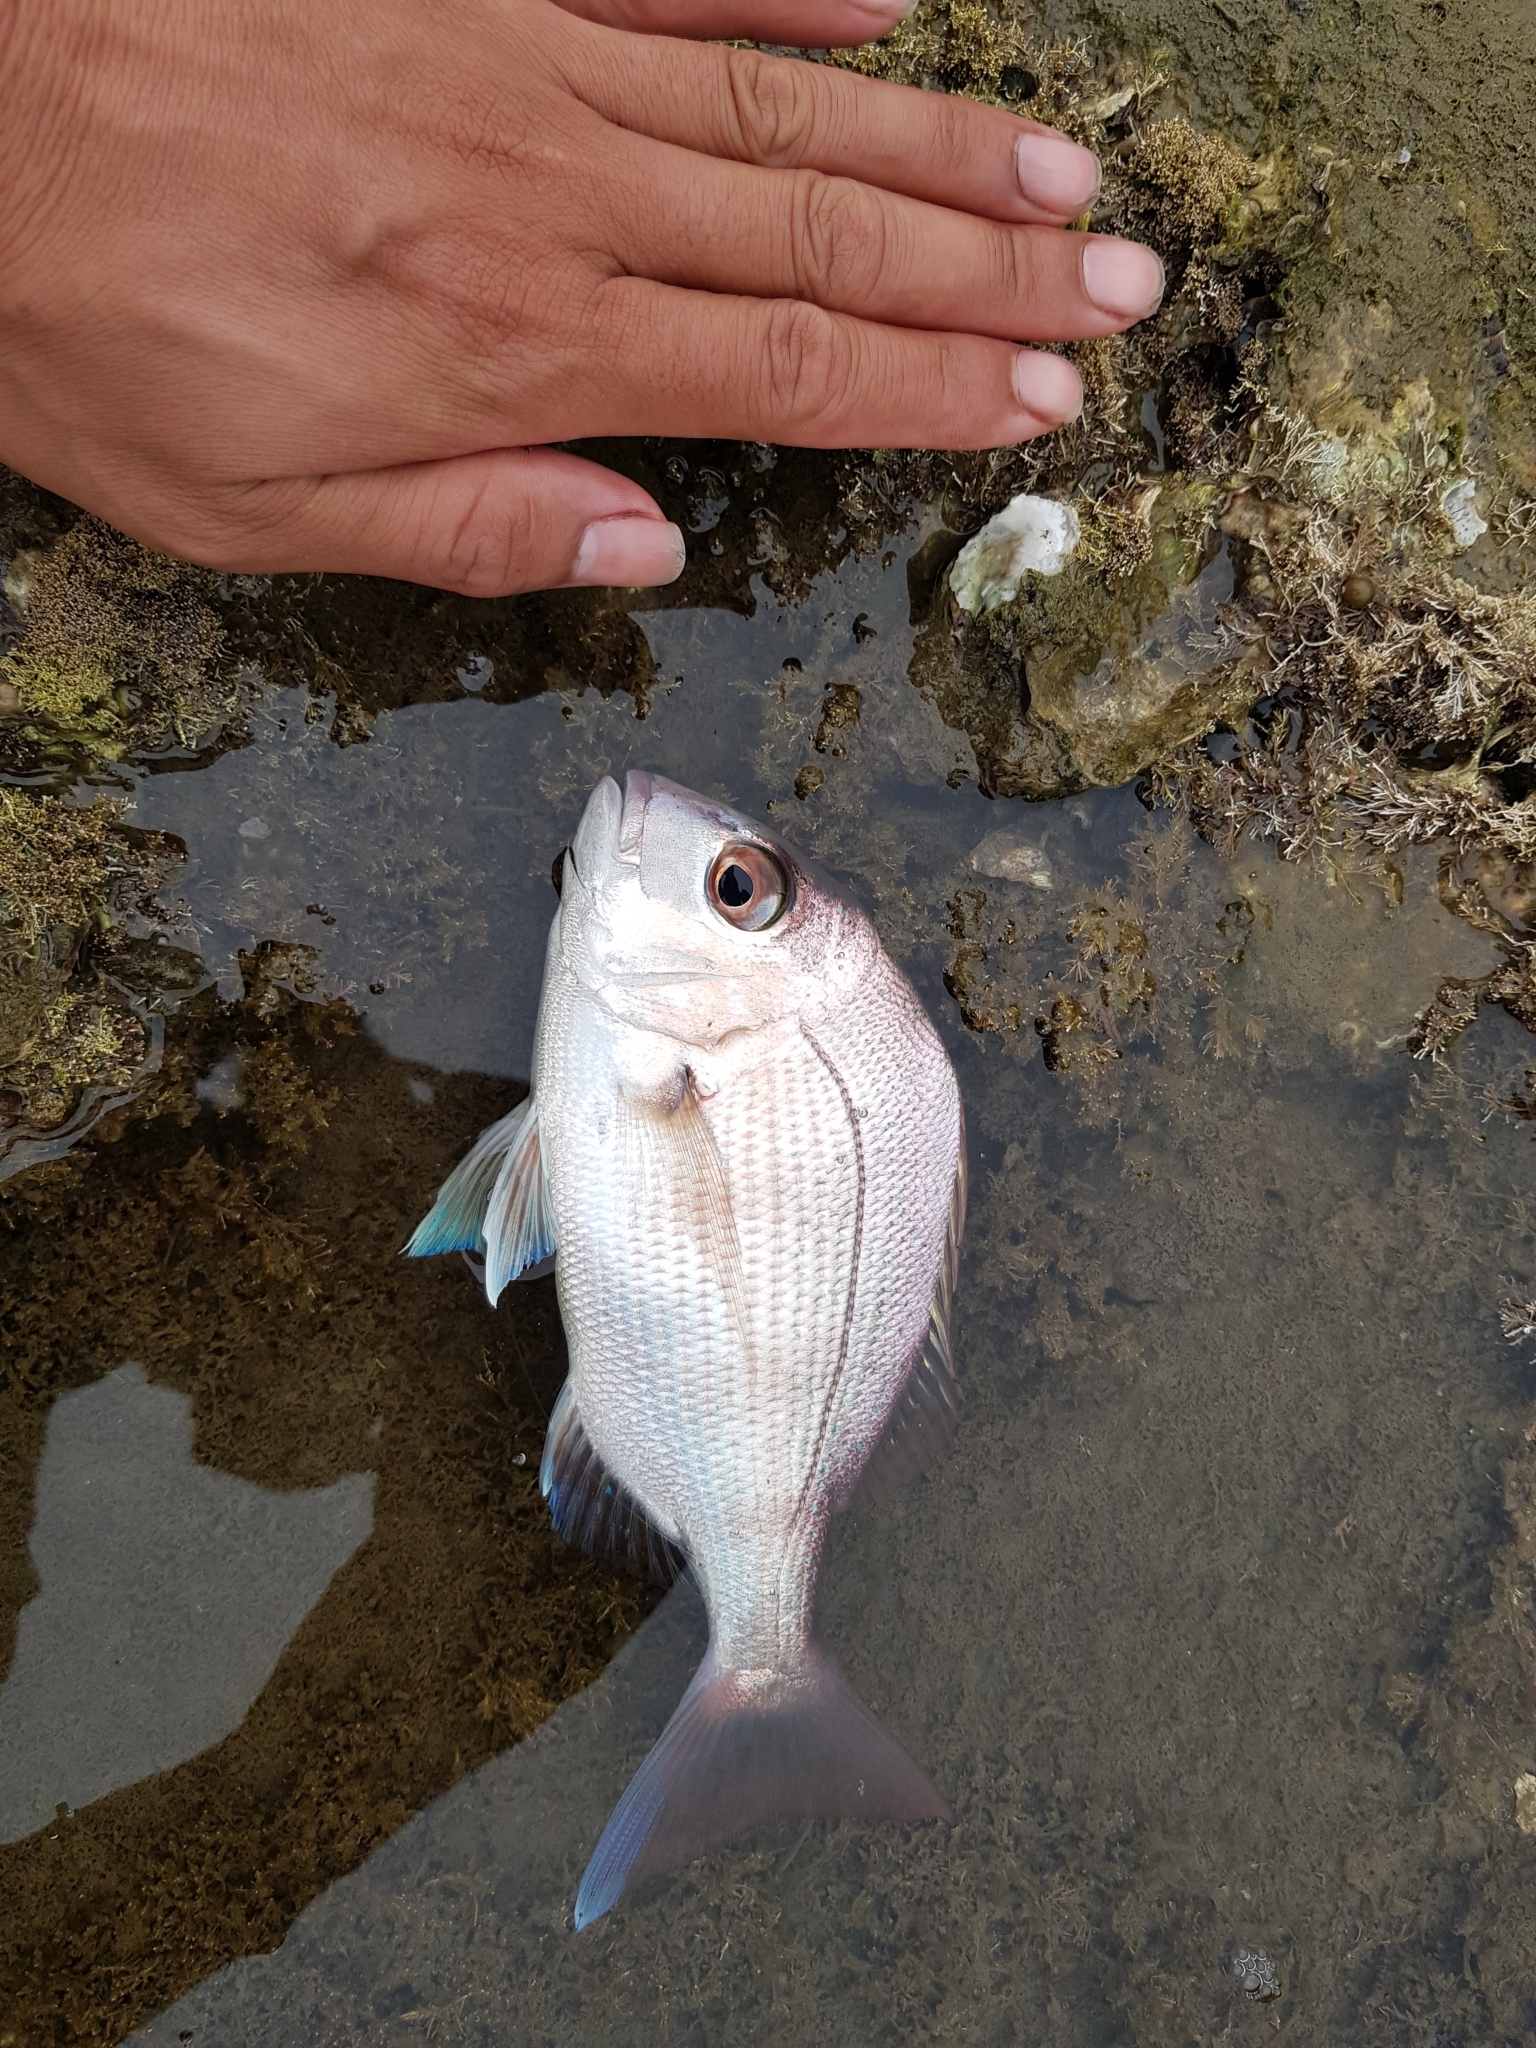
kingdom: Animalia
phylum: Chordata
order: Perciformes
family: Sparidae
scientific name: Sparidae
